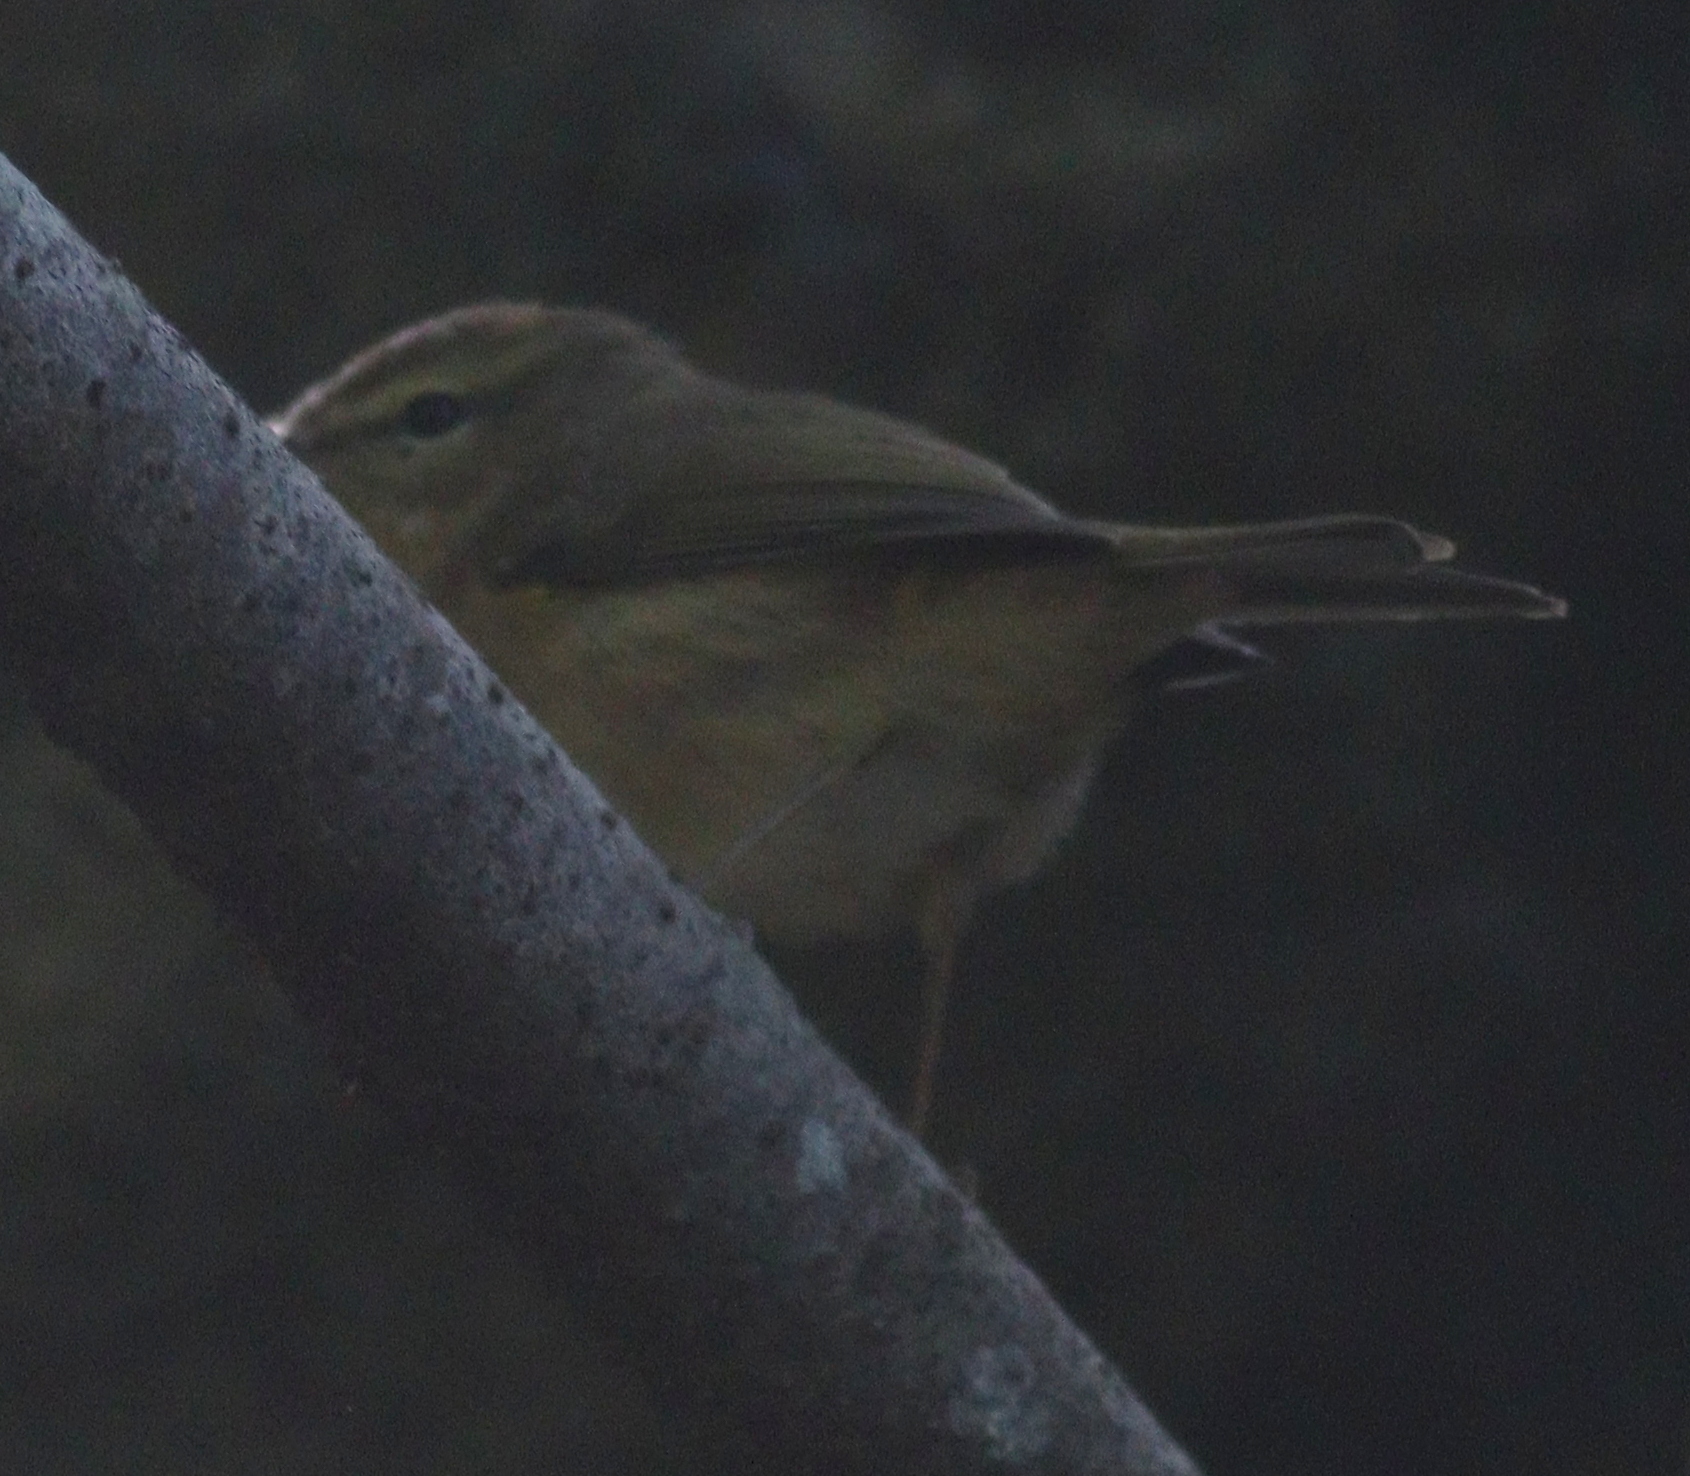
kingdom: Animalia
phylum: Chordata
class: Aves
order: Passeriformes
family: Phylloscopidae
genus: Phylloscopus
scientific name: Phylloscopus canariensis
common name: Canary islands chiffchaff
